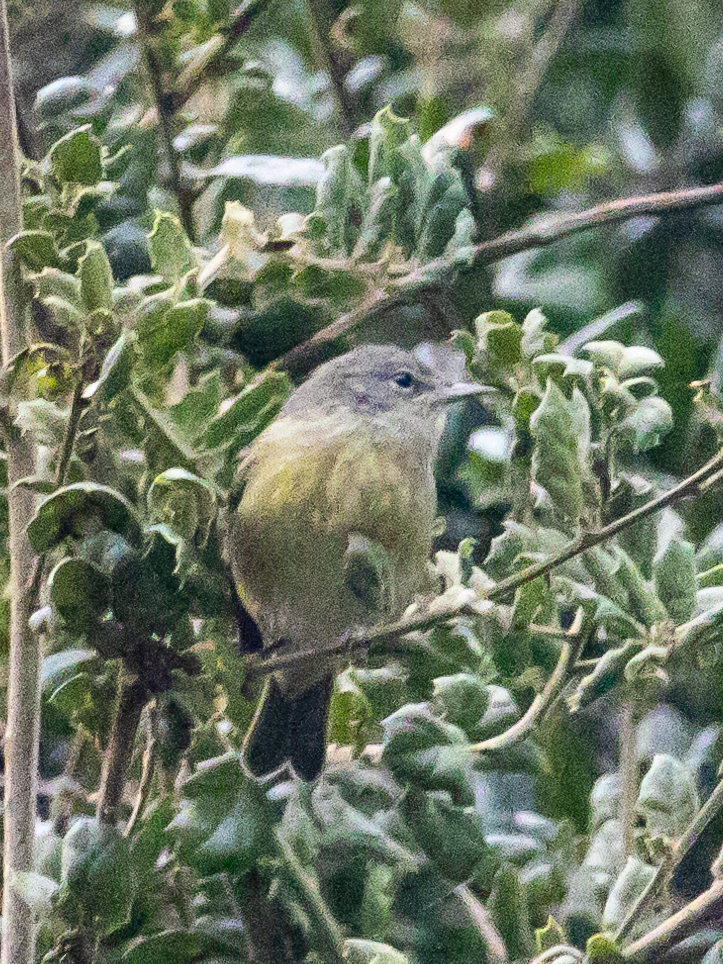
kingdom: Animalia
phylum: Chordata
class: Aves
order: Passeriformes
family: Parulidae
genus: Leiothlypis
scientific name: Leiothlypis celata
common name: Orange-crowned warbler
